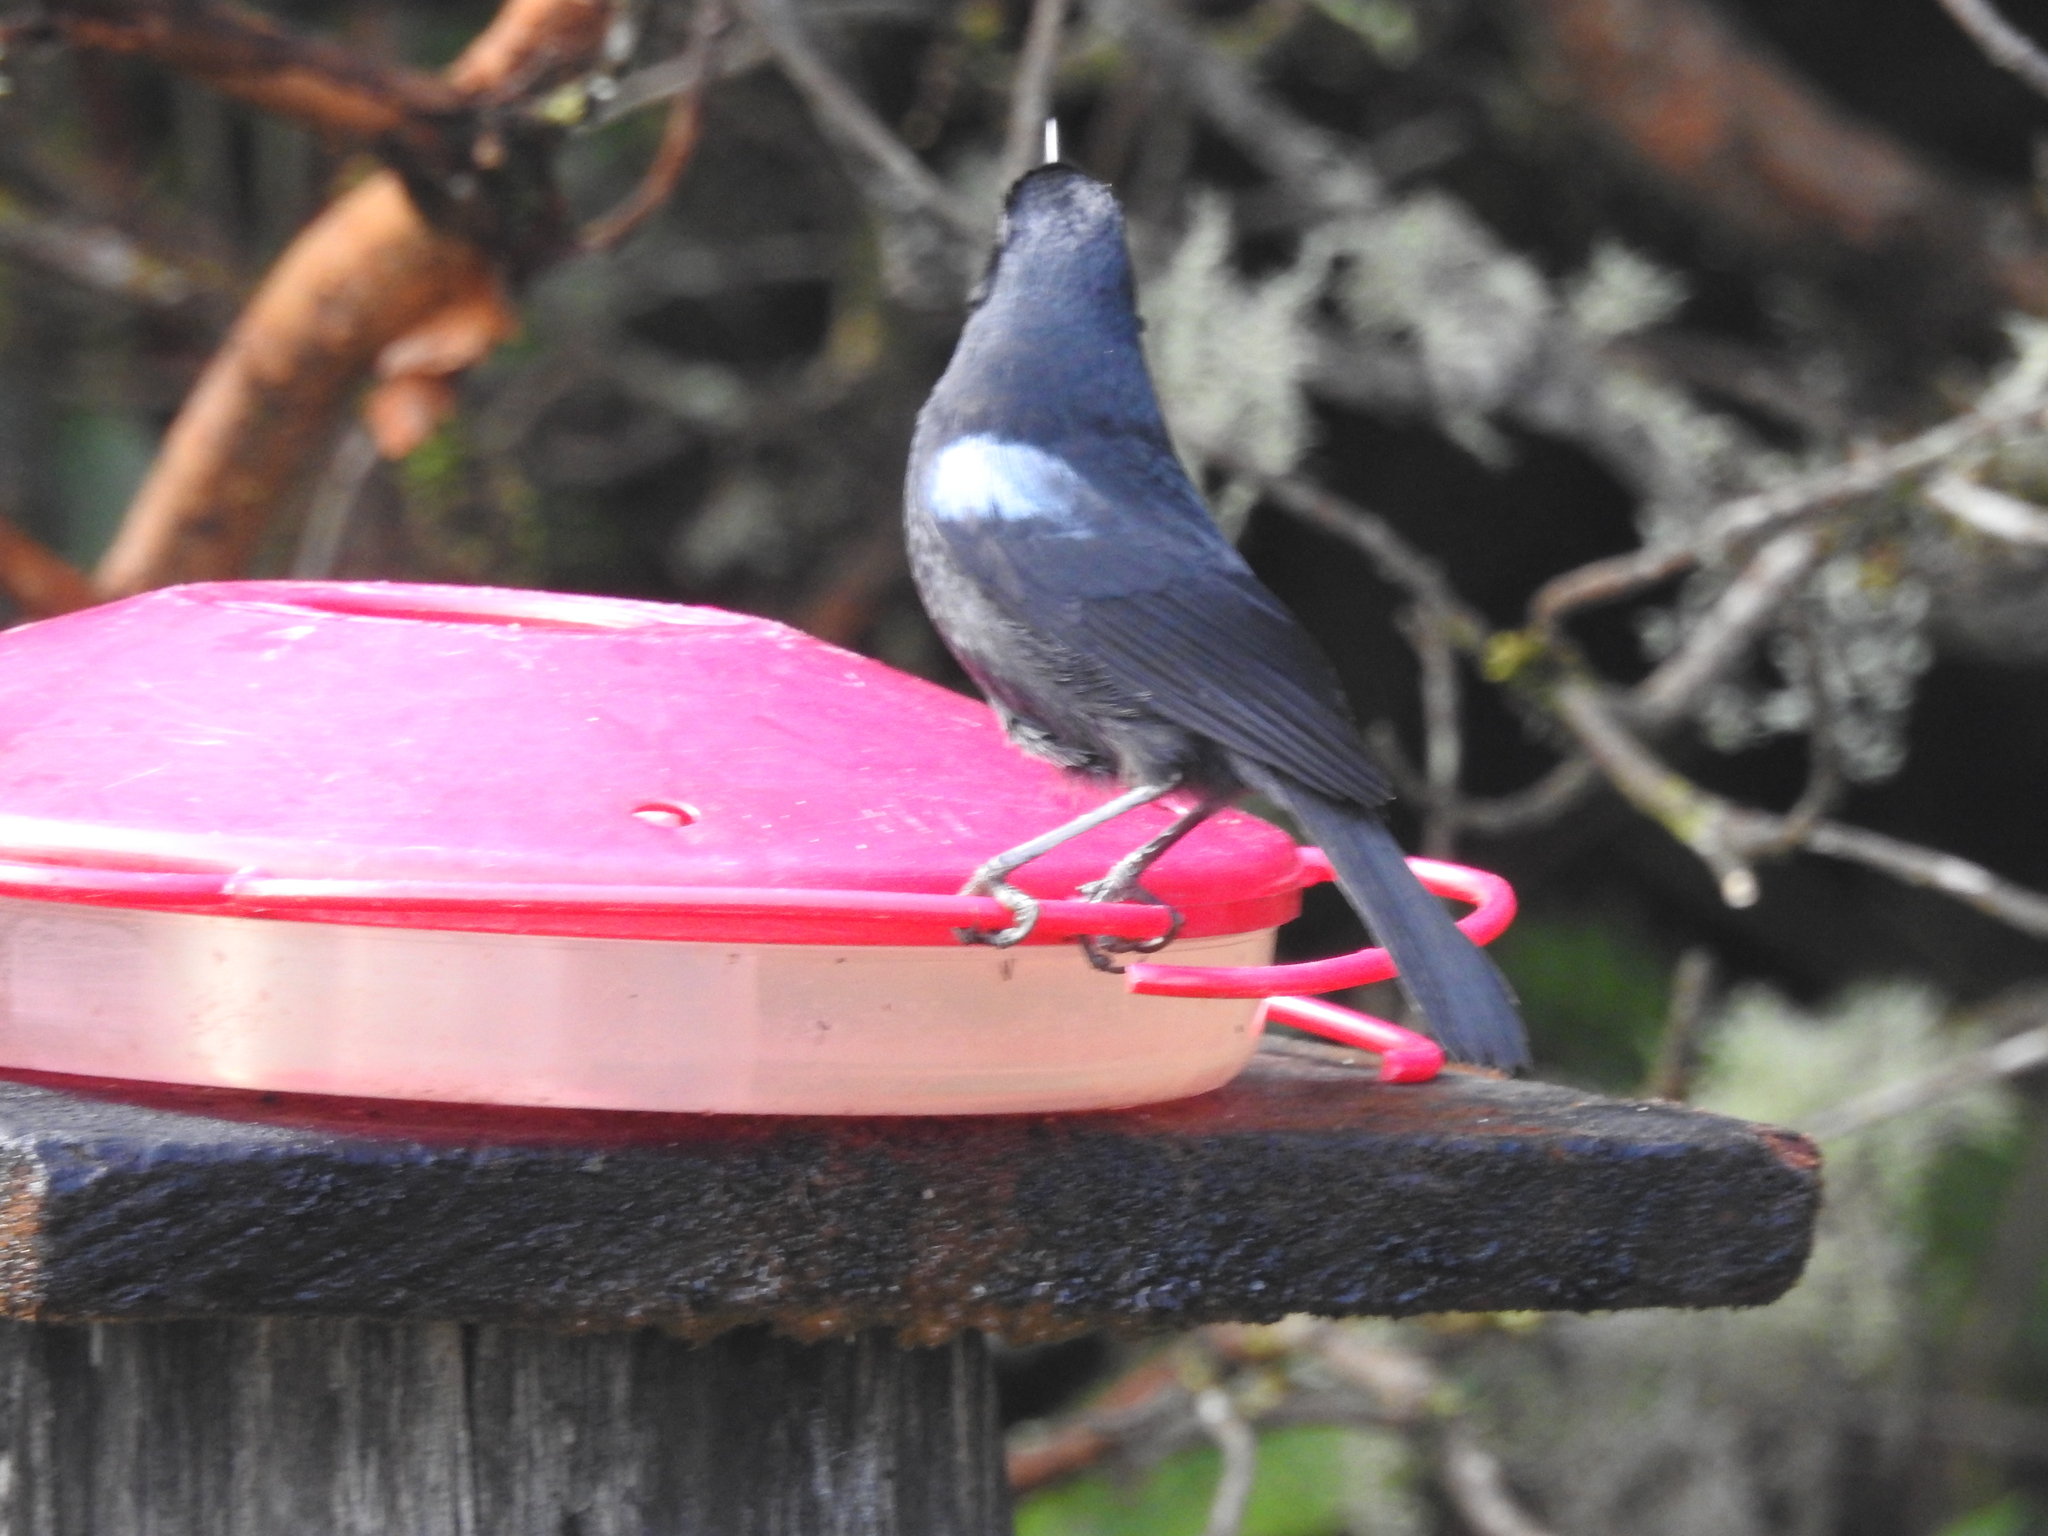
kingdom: Animalia
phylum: Chordata
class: Aves
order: Passeriformes
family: Thraupidae
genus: Diglossa
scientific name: Diglossa lafresnayii
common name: Glossy flowerpiercer
